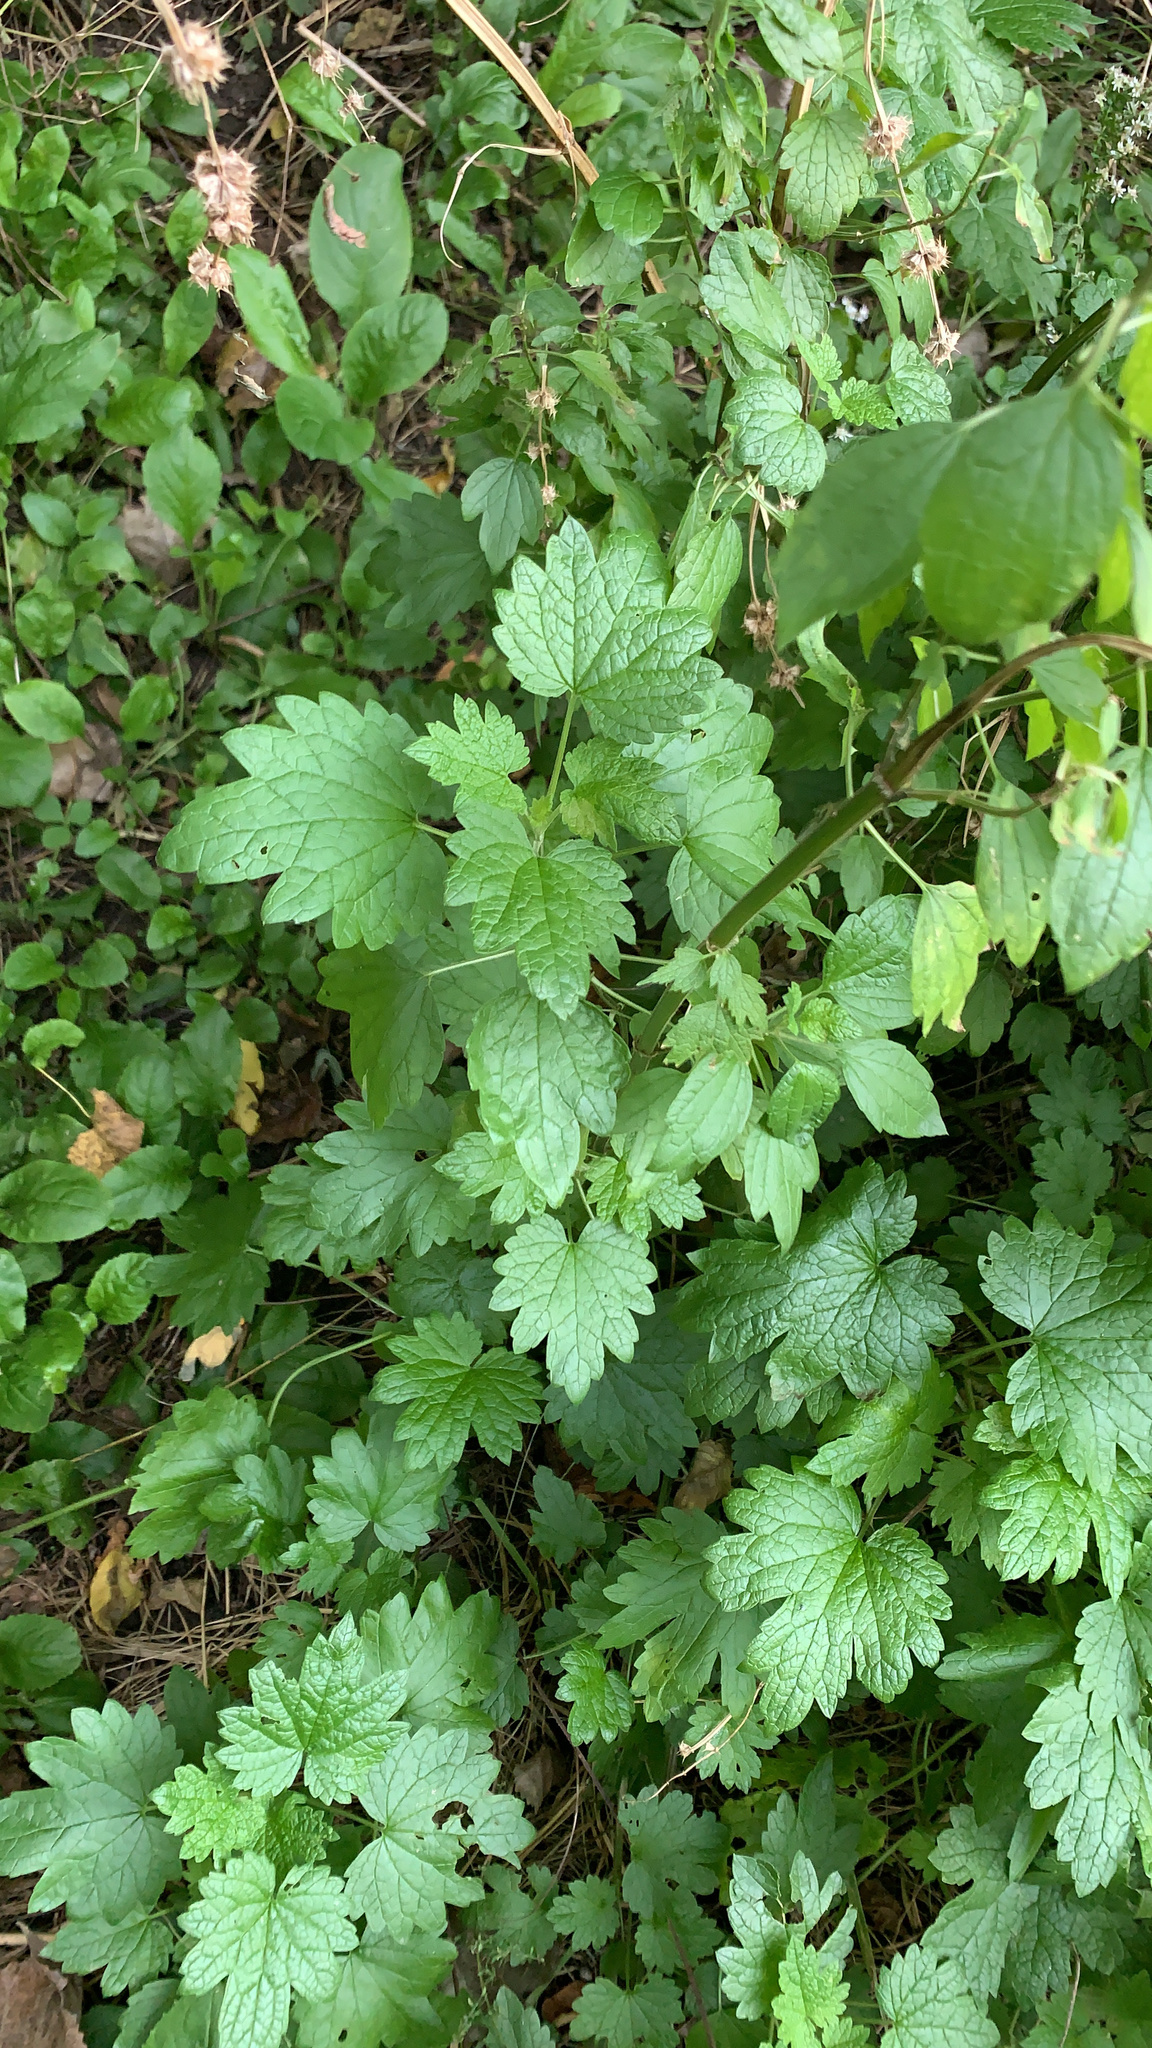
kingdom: Plantae
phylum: Tracheophyta
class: Magnoliopsida
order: Lamiales
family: Lamiaceae
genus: Leonurus
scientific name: Leonurus cardiaca
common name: Motherwort
